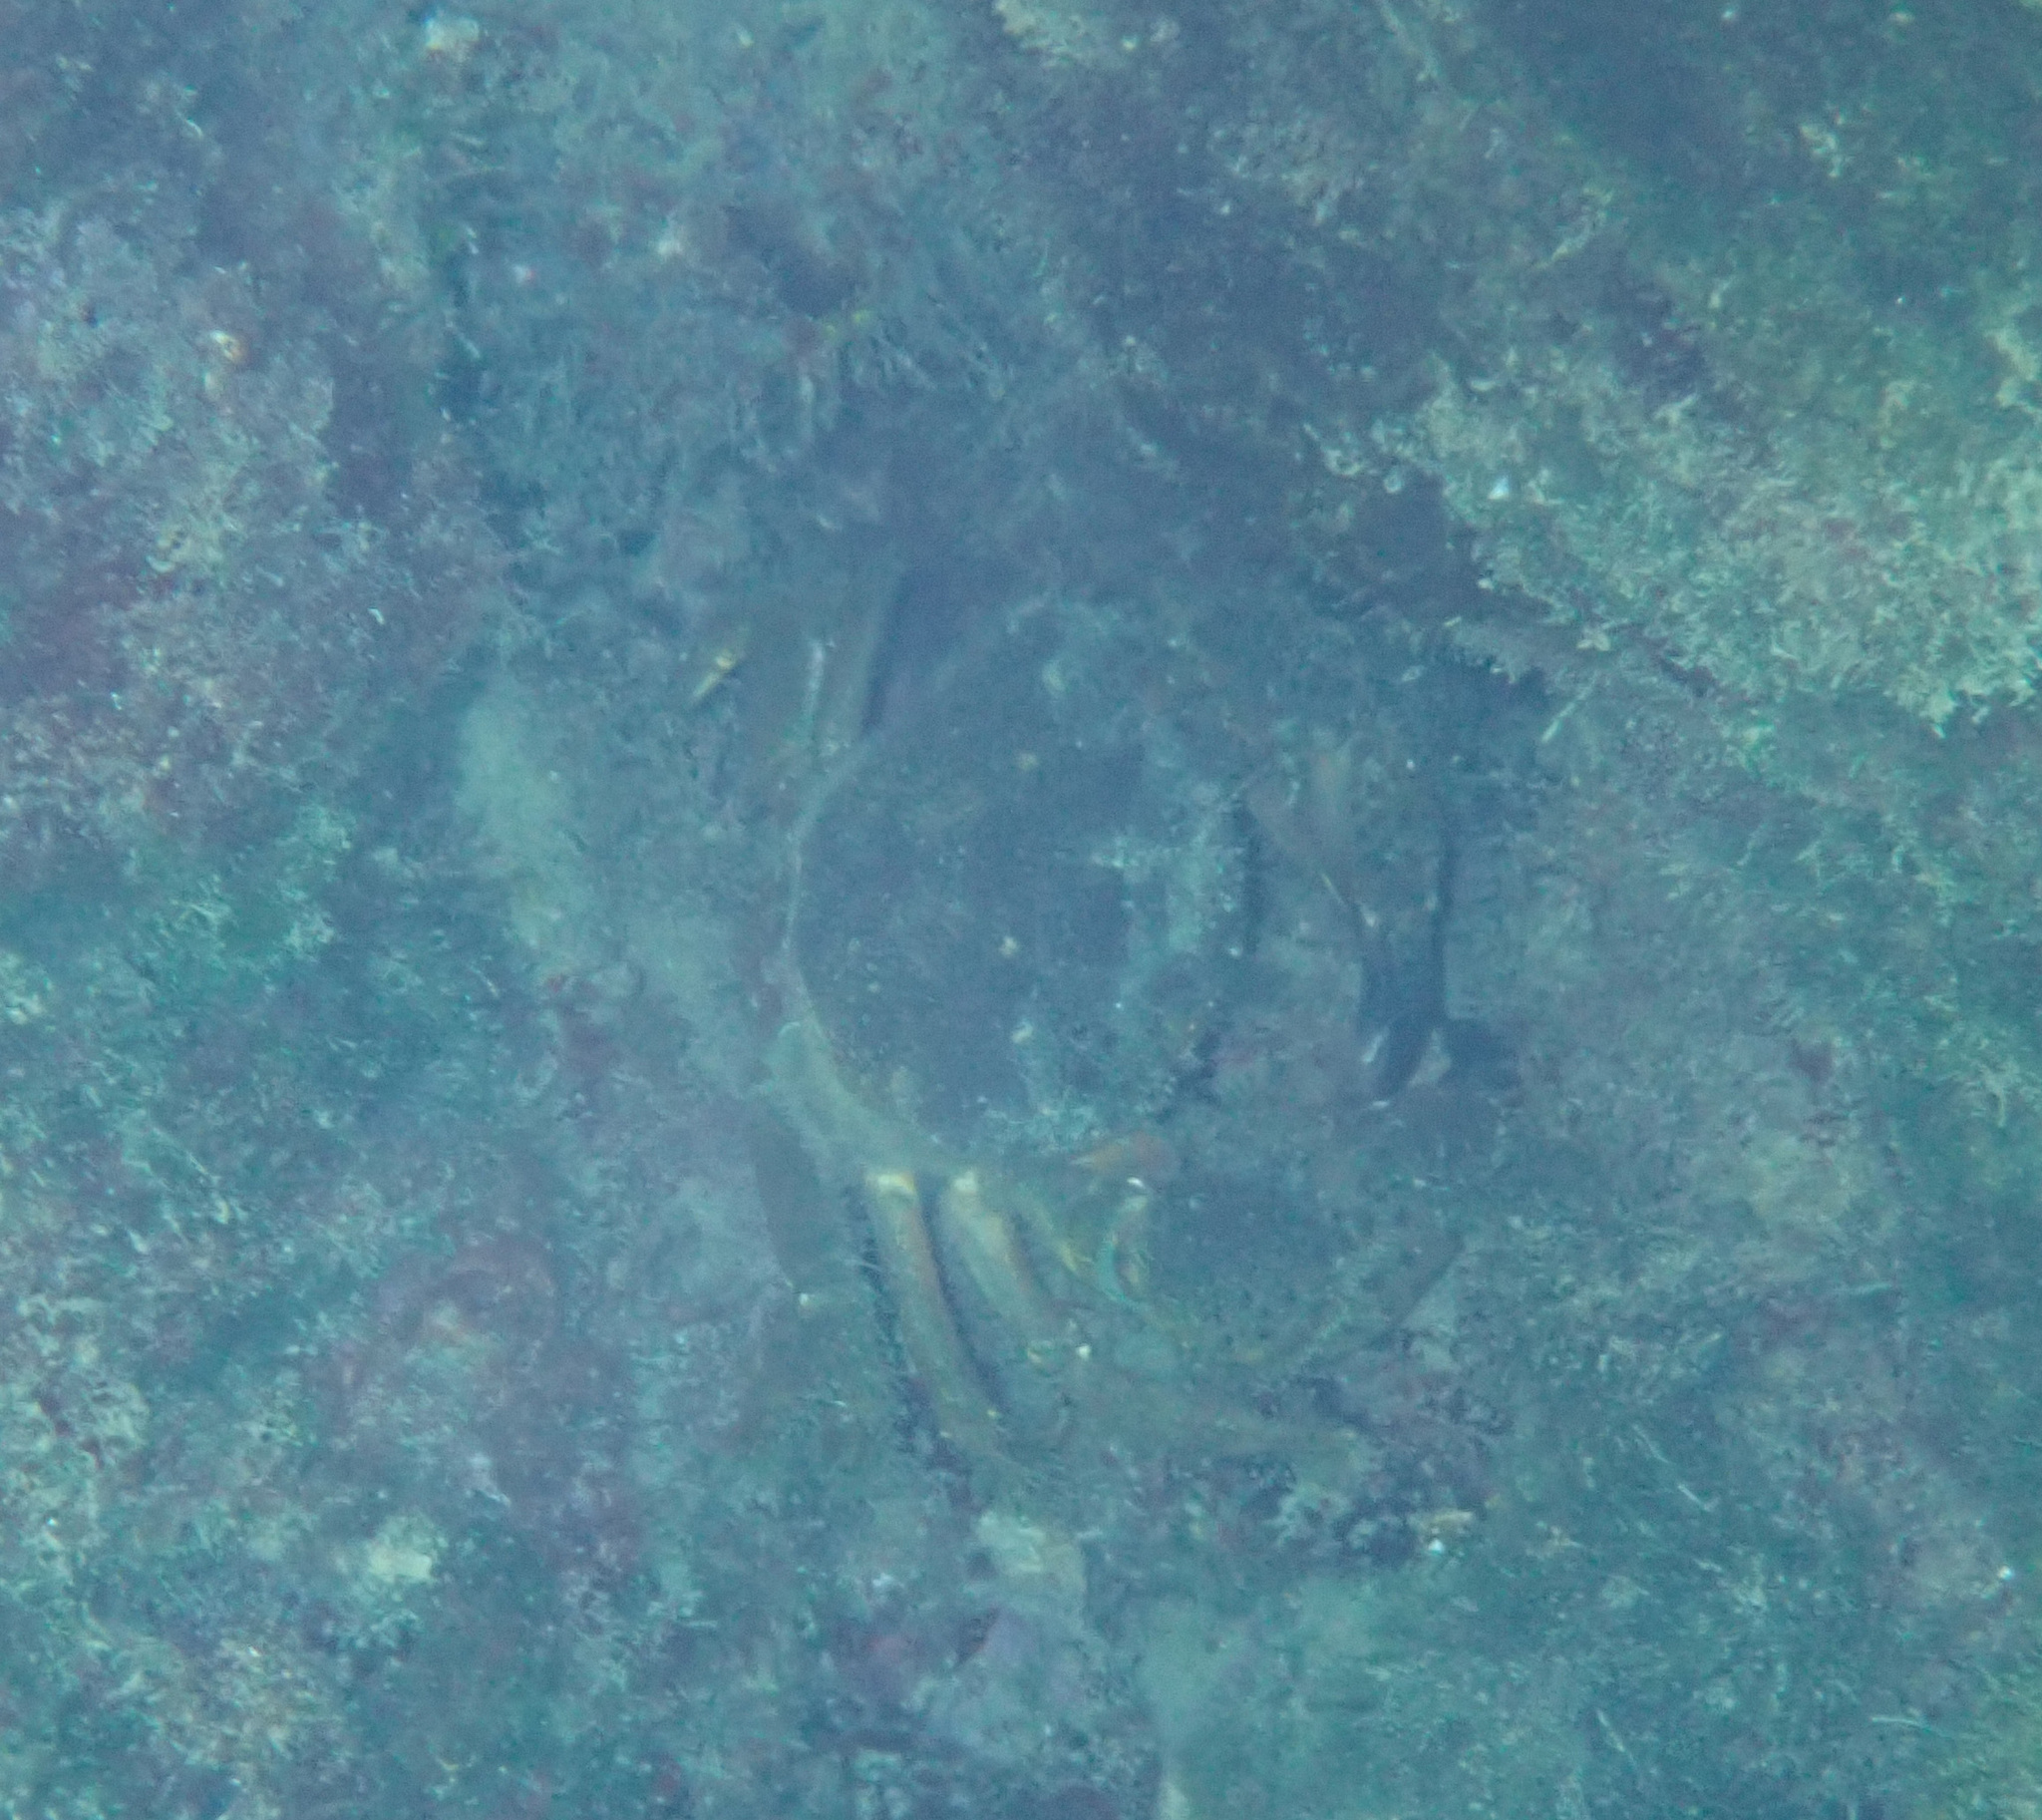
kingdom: Animalia
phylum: Arthropoda
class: Malacostraca
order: Decapoda
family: Eriphiidae
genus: Eriphia
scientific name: Eriphia verrucosa
